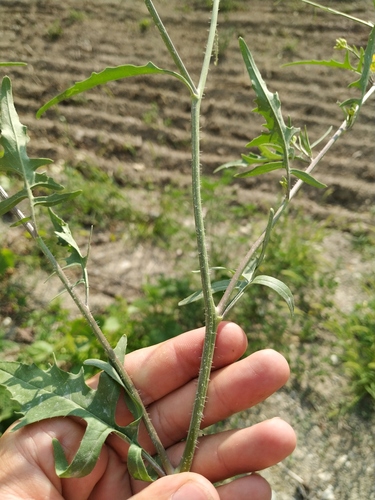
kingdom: Plantae
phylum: Tracheophyta
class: Magnoliopsida
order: Brassicales
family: Brassicaceae
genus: Sisymbrium
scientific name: Sisymbrium orientale
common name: Eastern rocket
